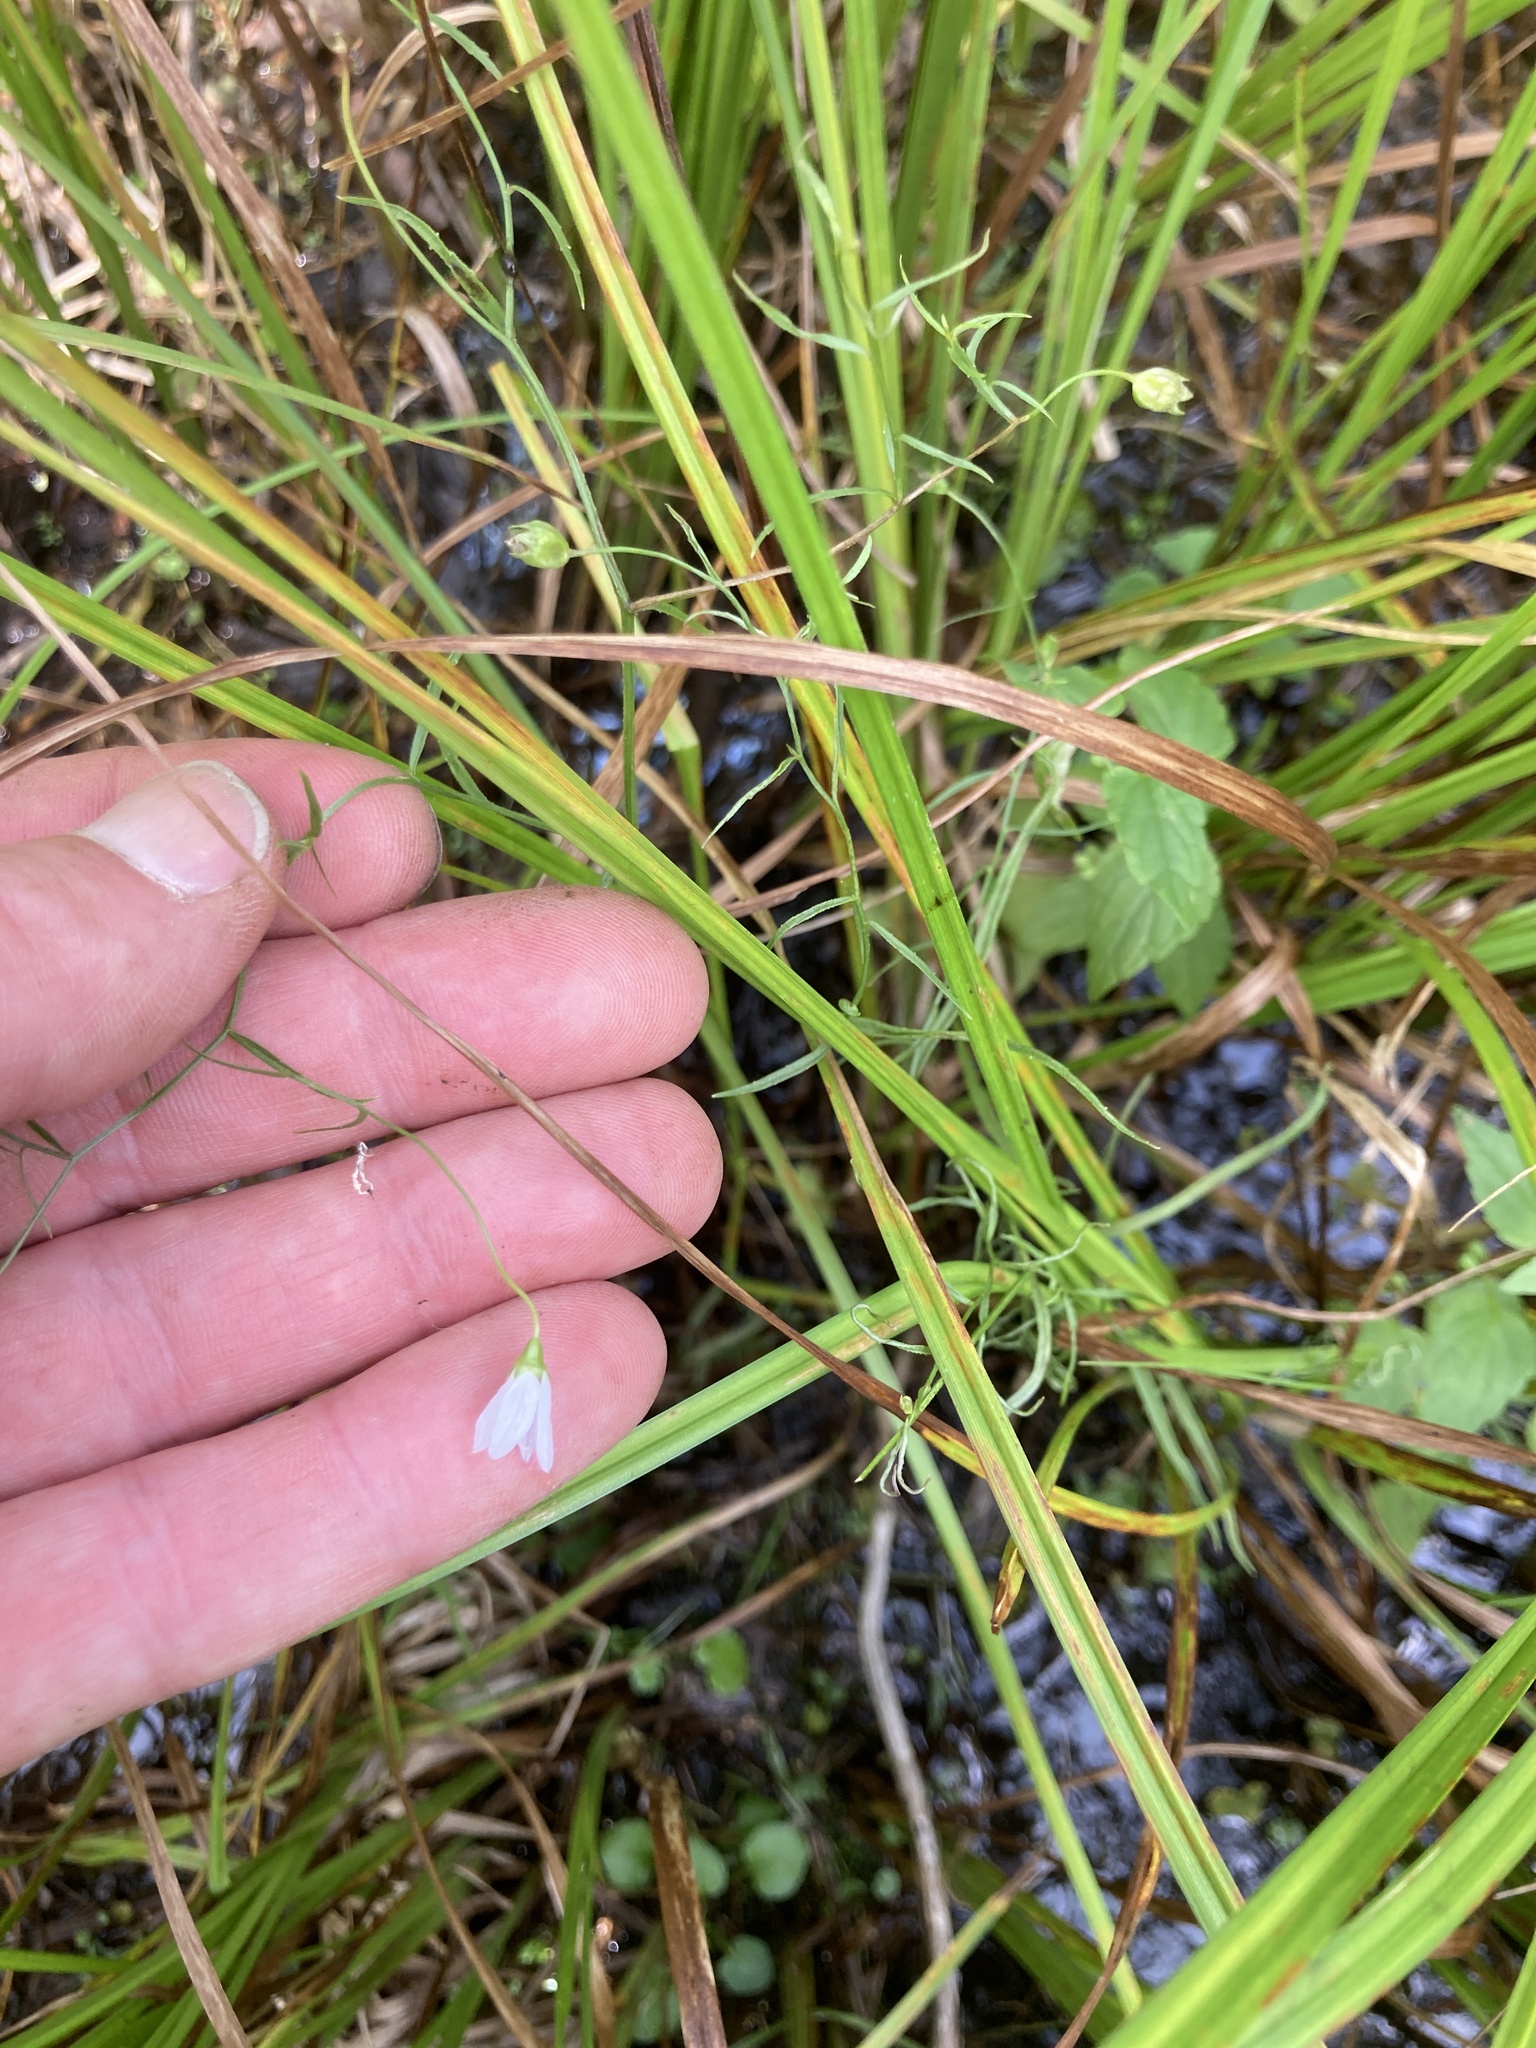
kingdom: Plantae
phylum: Tracheophyta
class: Magnoliopsida
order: Asterales
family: Campanulaceae
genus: Palustricodon
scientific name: Palustricodon aparinoides
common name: Bedstraw bellflower
